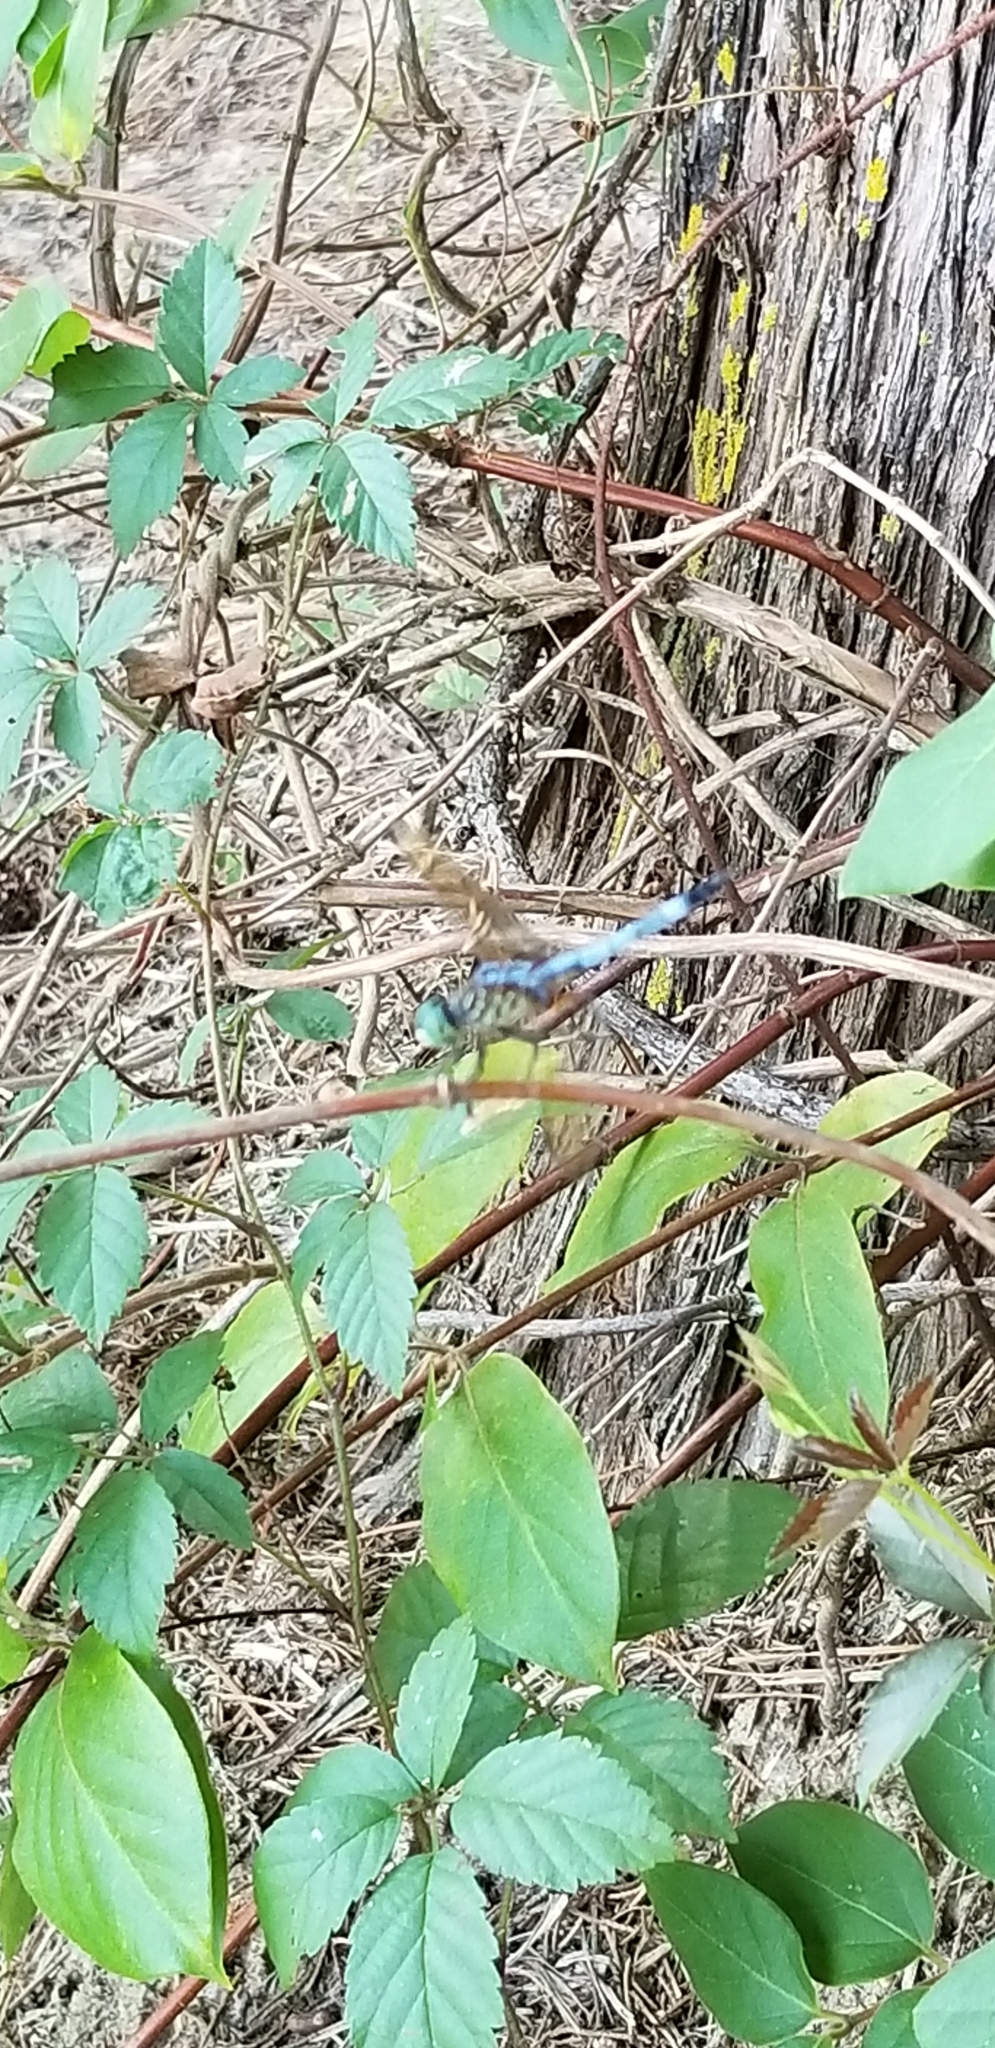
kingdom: Animalia
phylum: Arthropoda
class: Insecta
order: Odonata
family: Libellulidae
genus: Pachydiplax
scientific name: Pachydiplax longipennis
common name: Blue dasher
